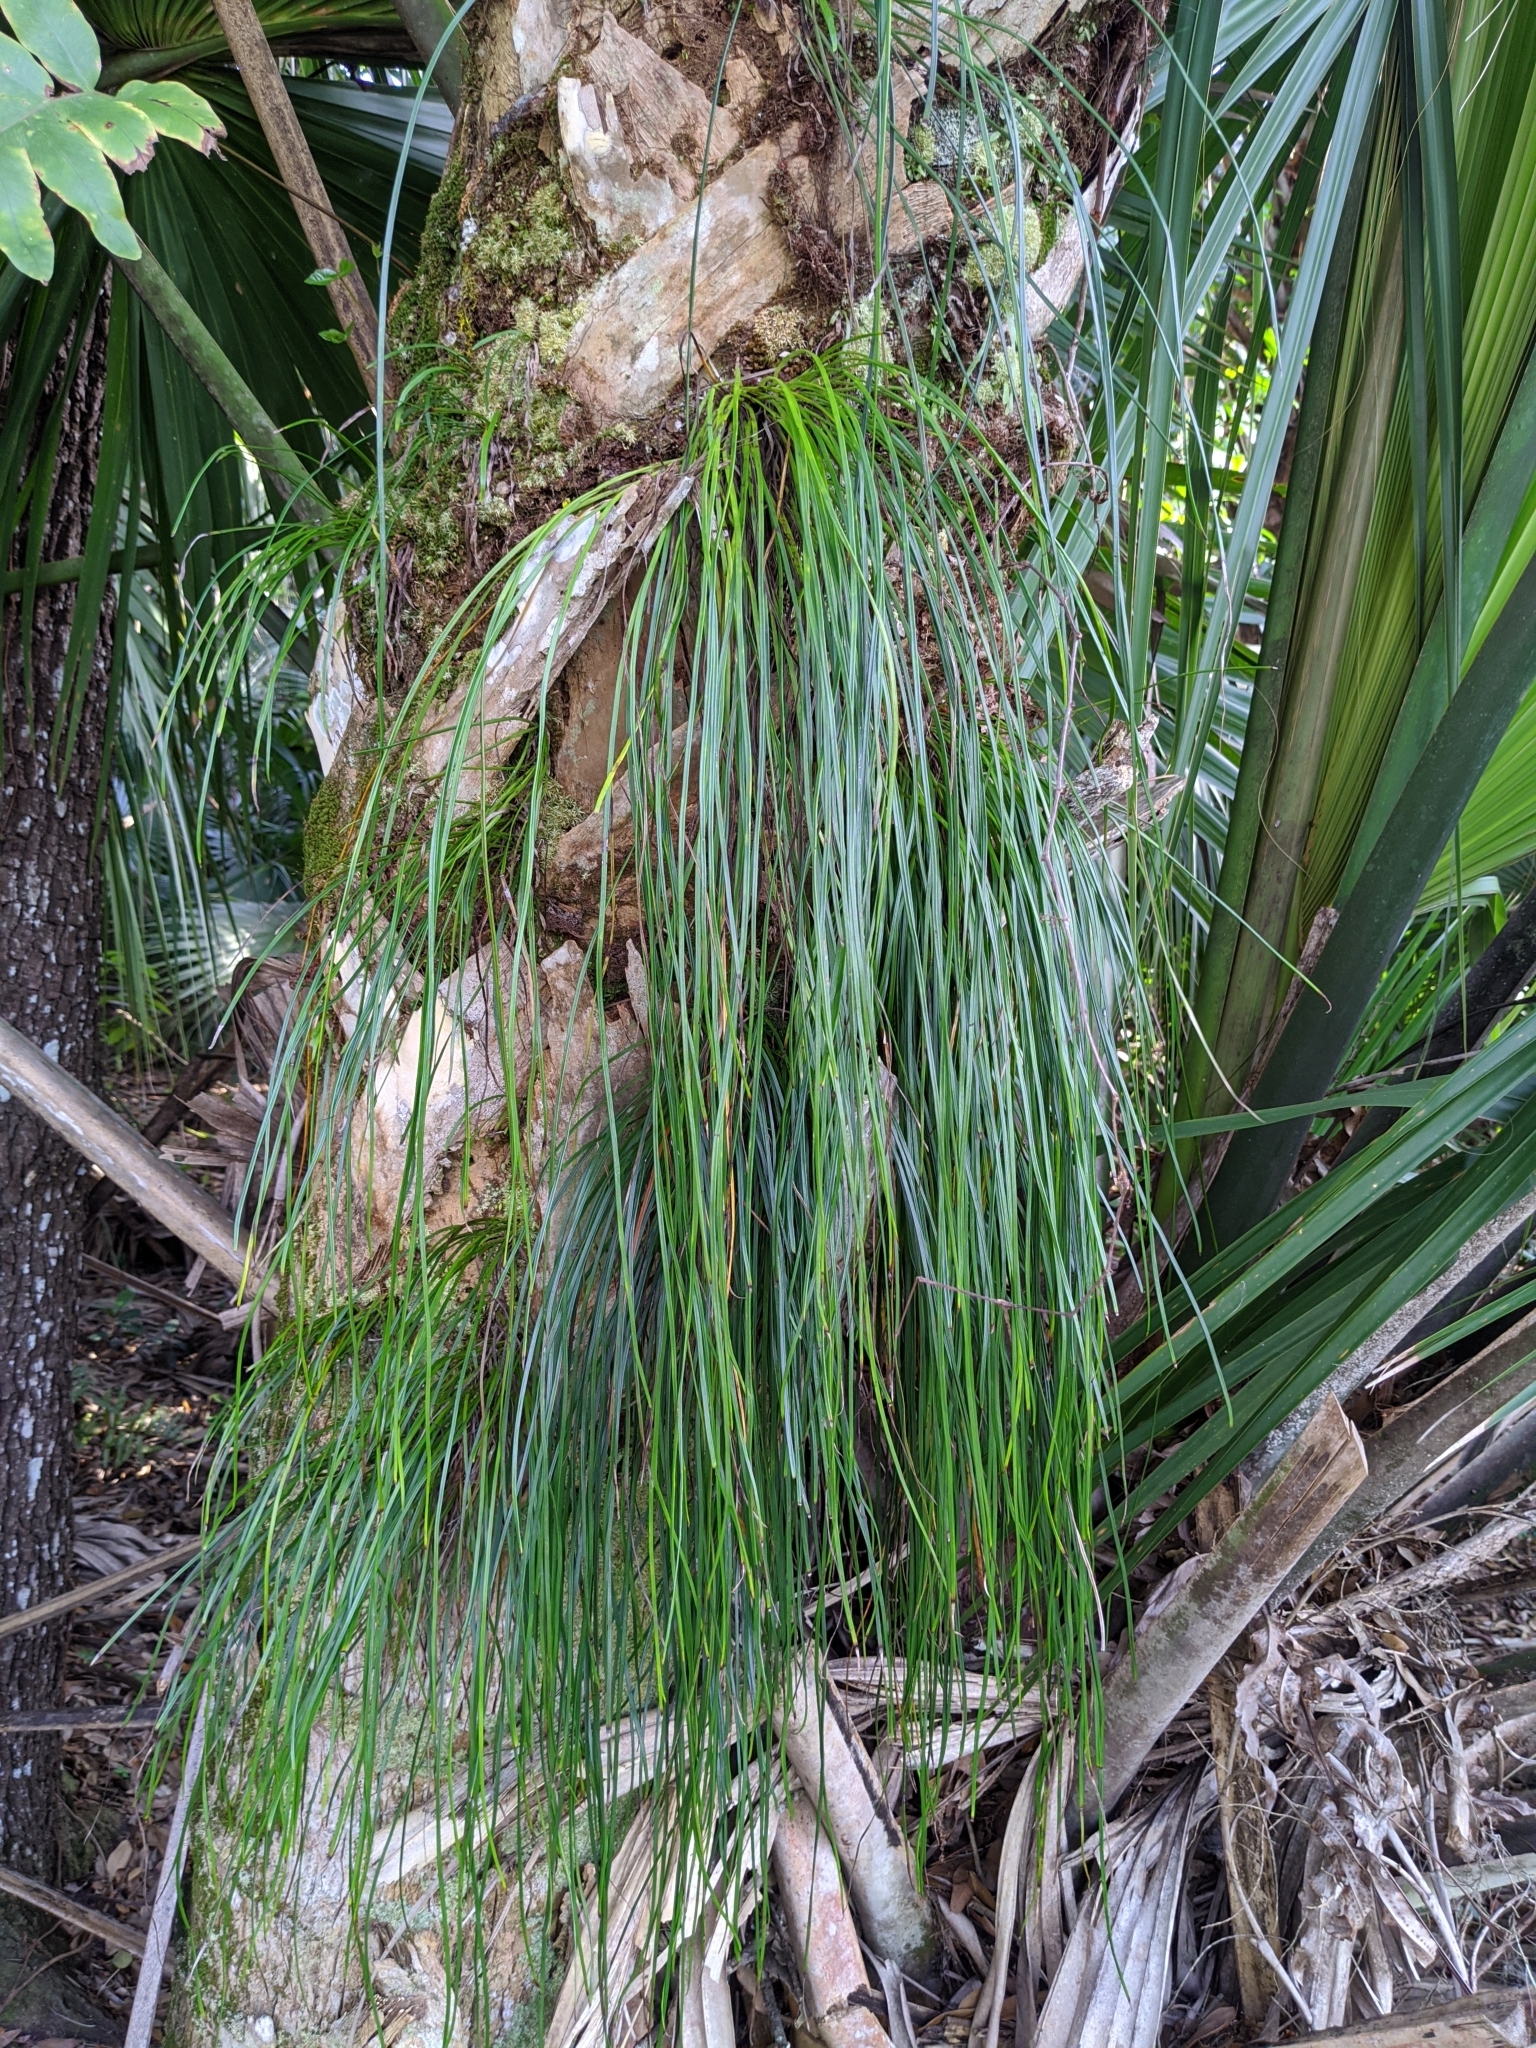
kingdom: Plantae
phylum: Tracheophyta
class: Polypodiopsida
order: Polypodiales
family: Pteridaceae
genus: Vittaria
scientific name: Vittaria lineata
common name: Shoestring fern
